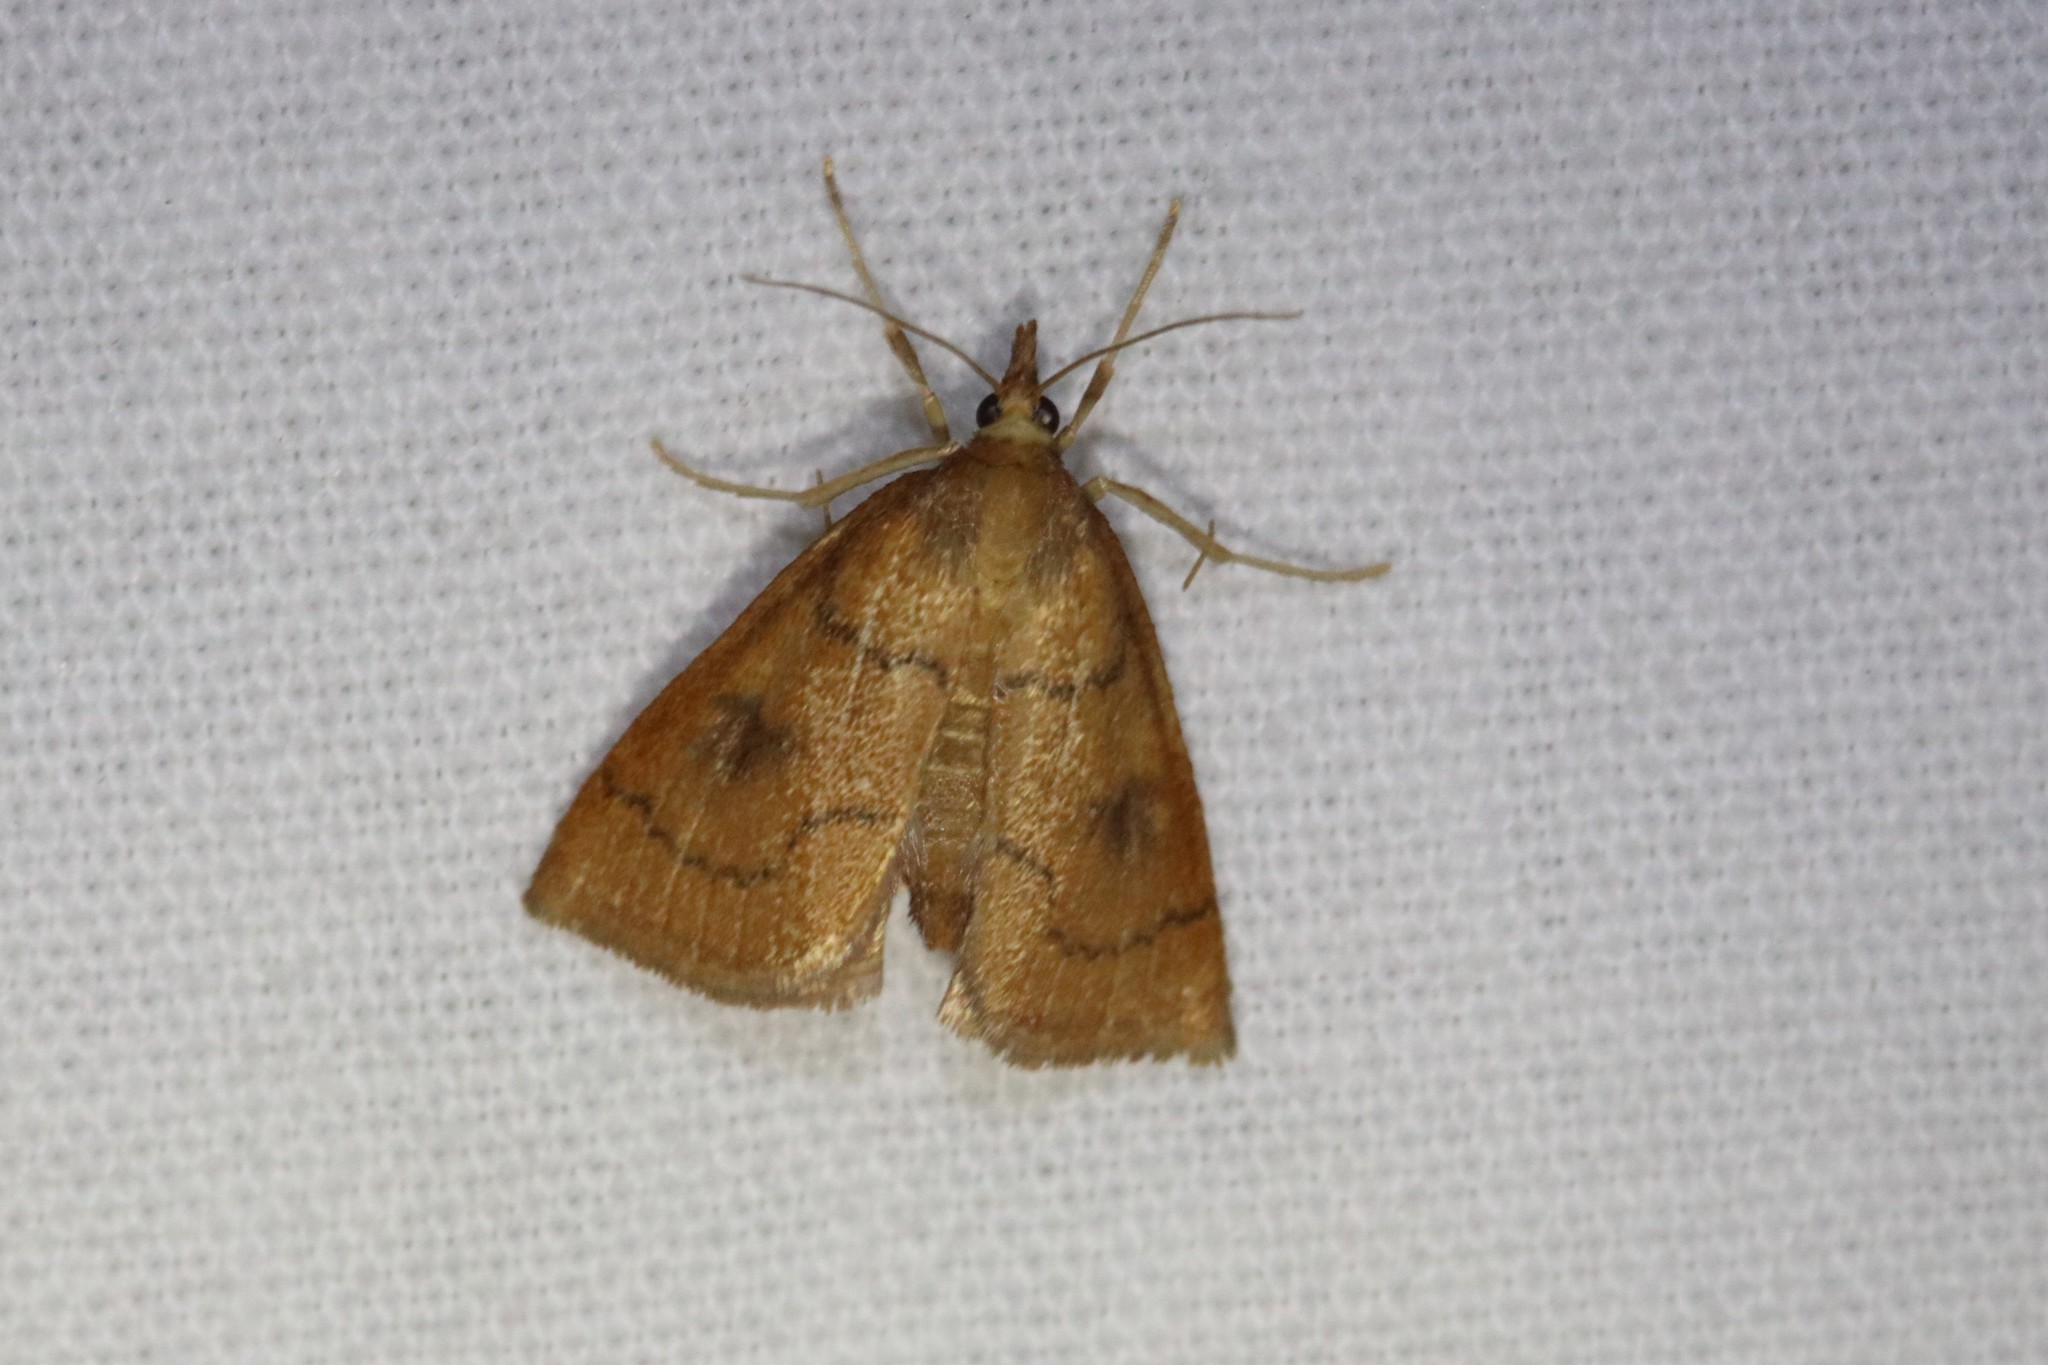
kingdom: Animalia
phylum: Arthropoda
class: Insecta
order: Lepidoptera
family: Crambidae
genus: Fumibotys
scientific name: Fumibotys fumalis
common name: Mint root borer moth
